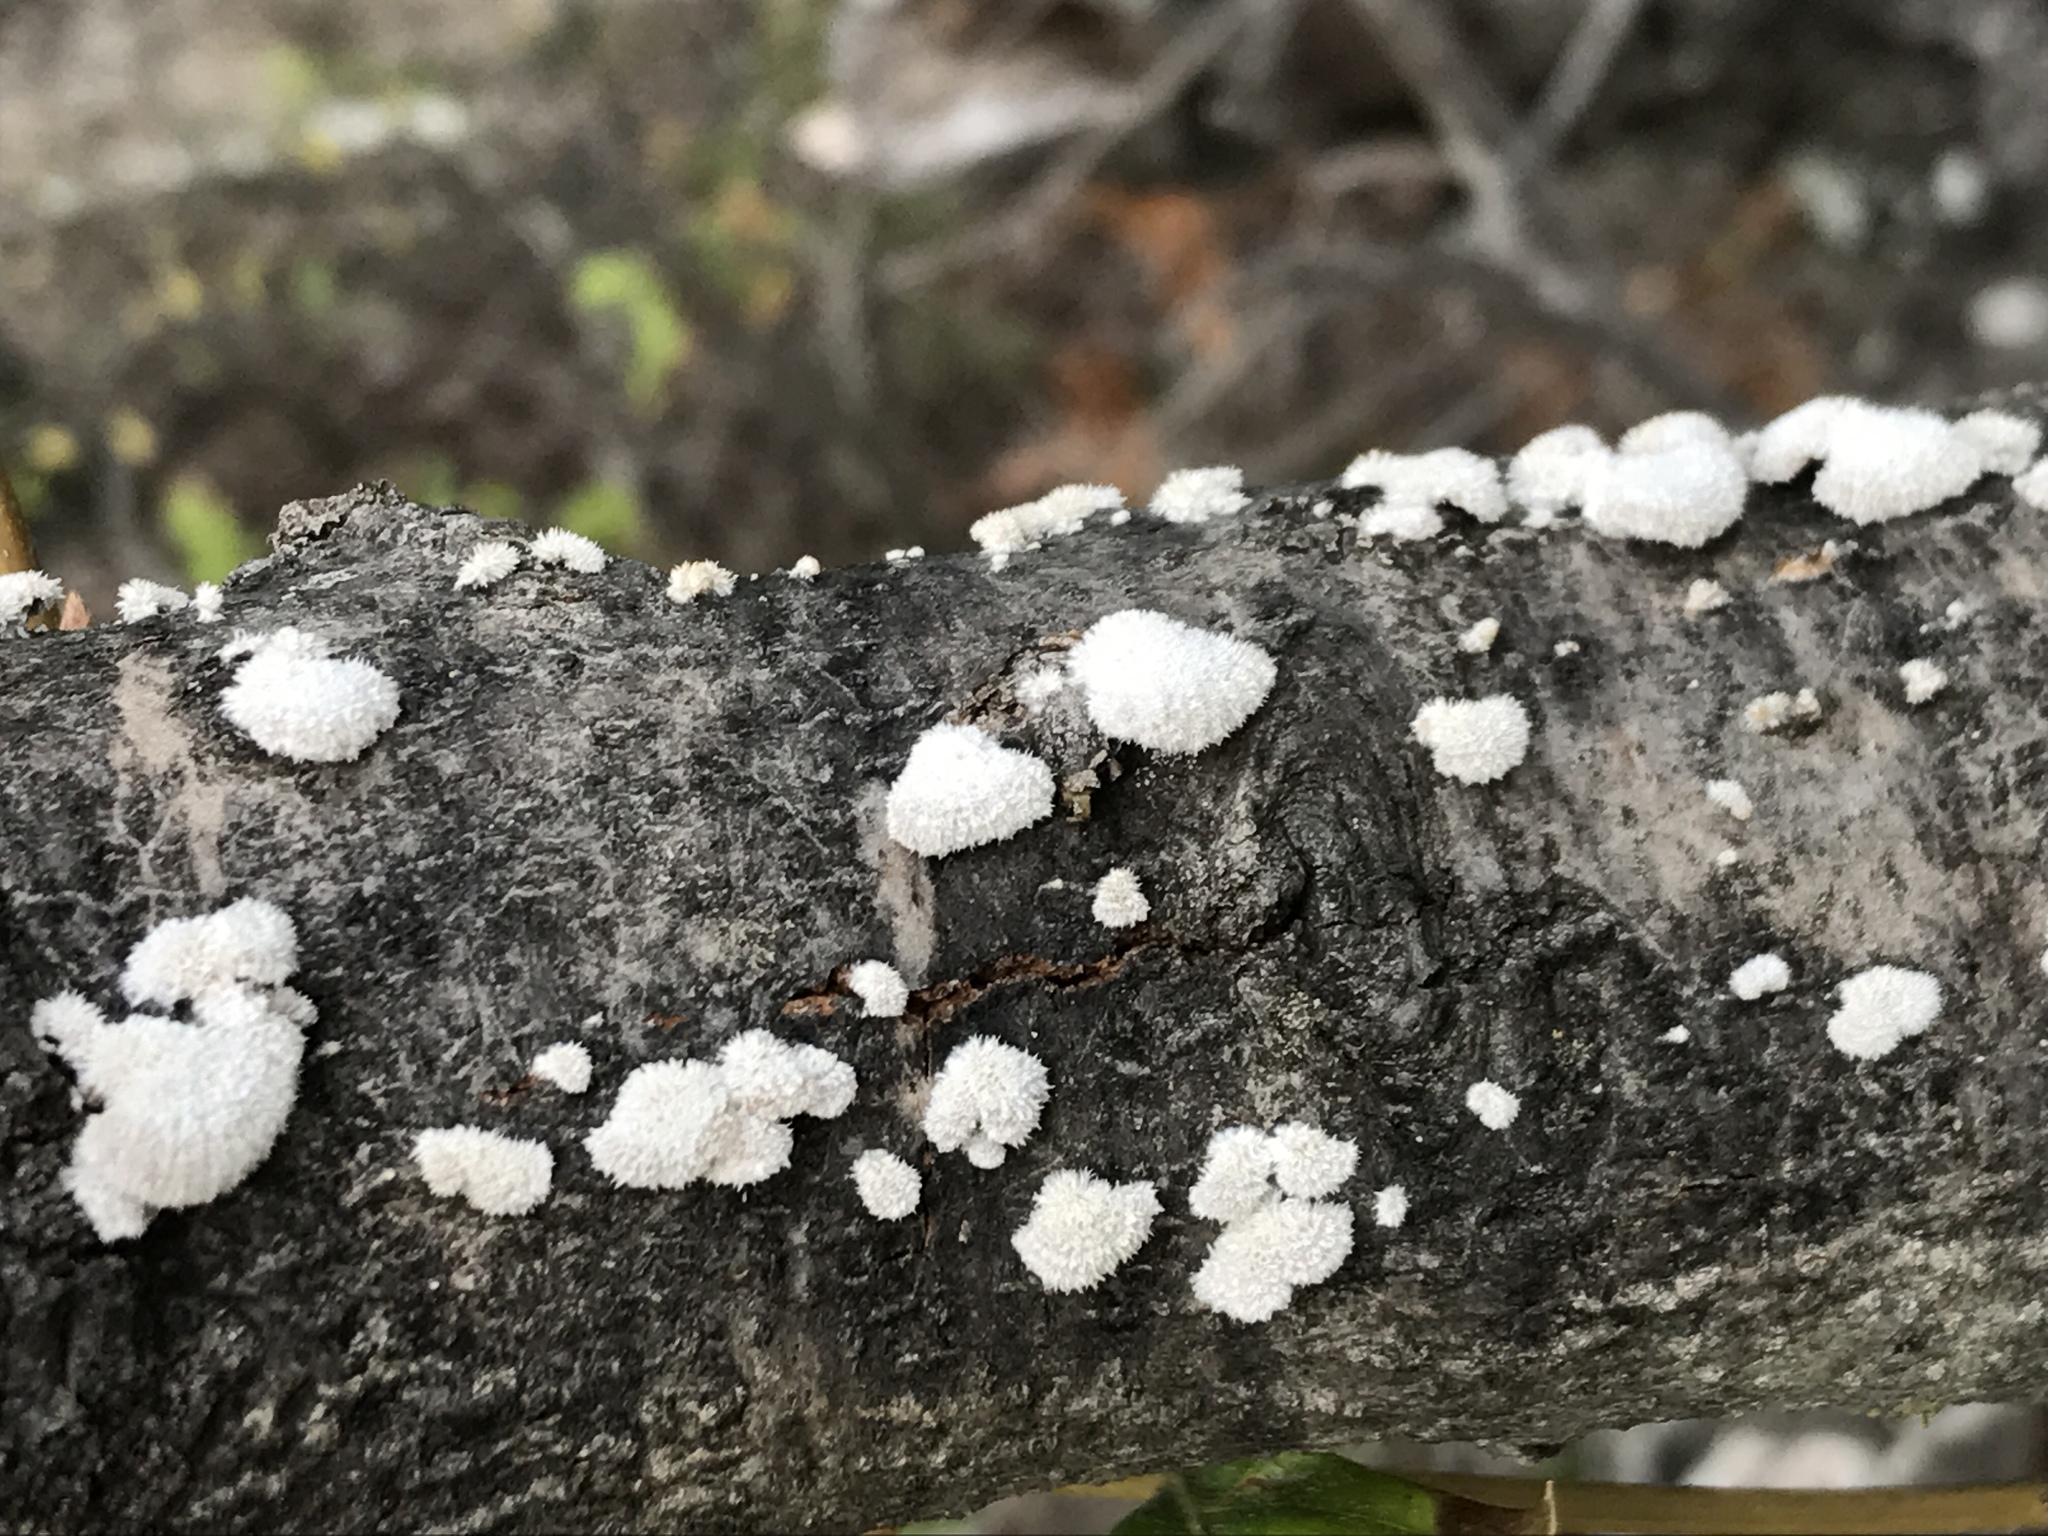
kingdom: Fungi
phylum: Basidiomycota
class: Agaricomycetes
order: Agaricales
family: Schizophyllaceae
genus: Schizophyllum
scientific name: Schizophyllum commune
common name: Common porecrust
